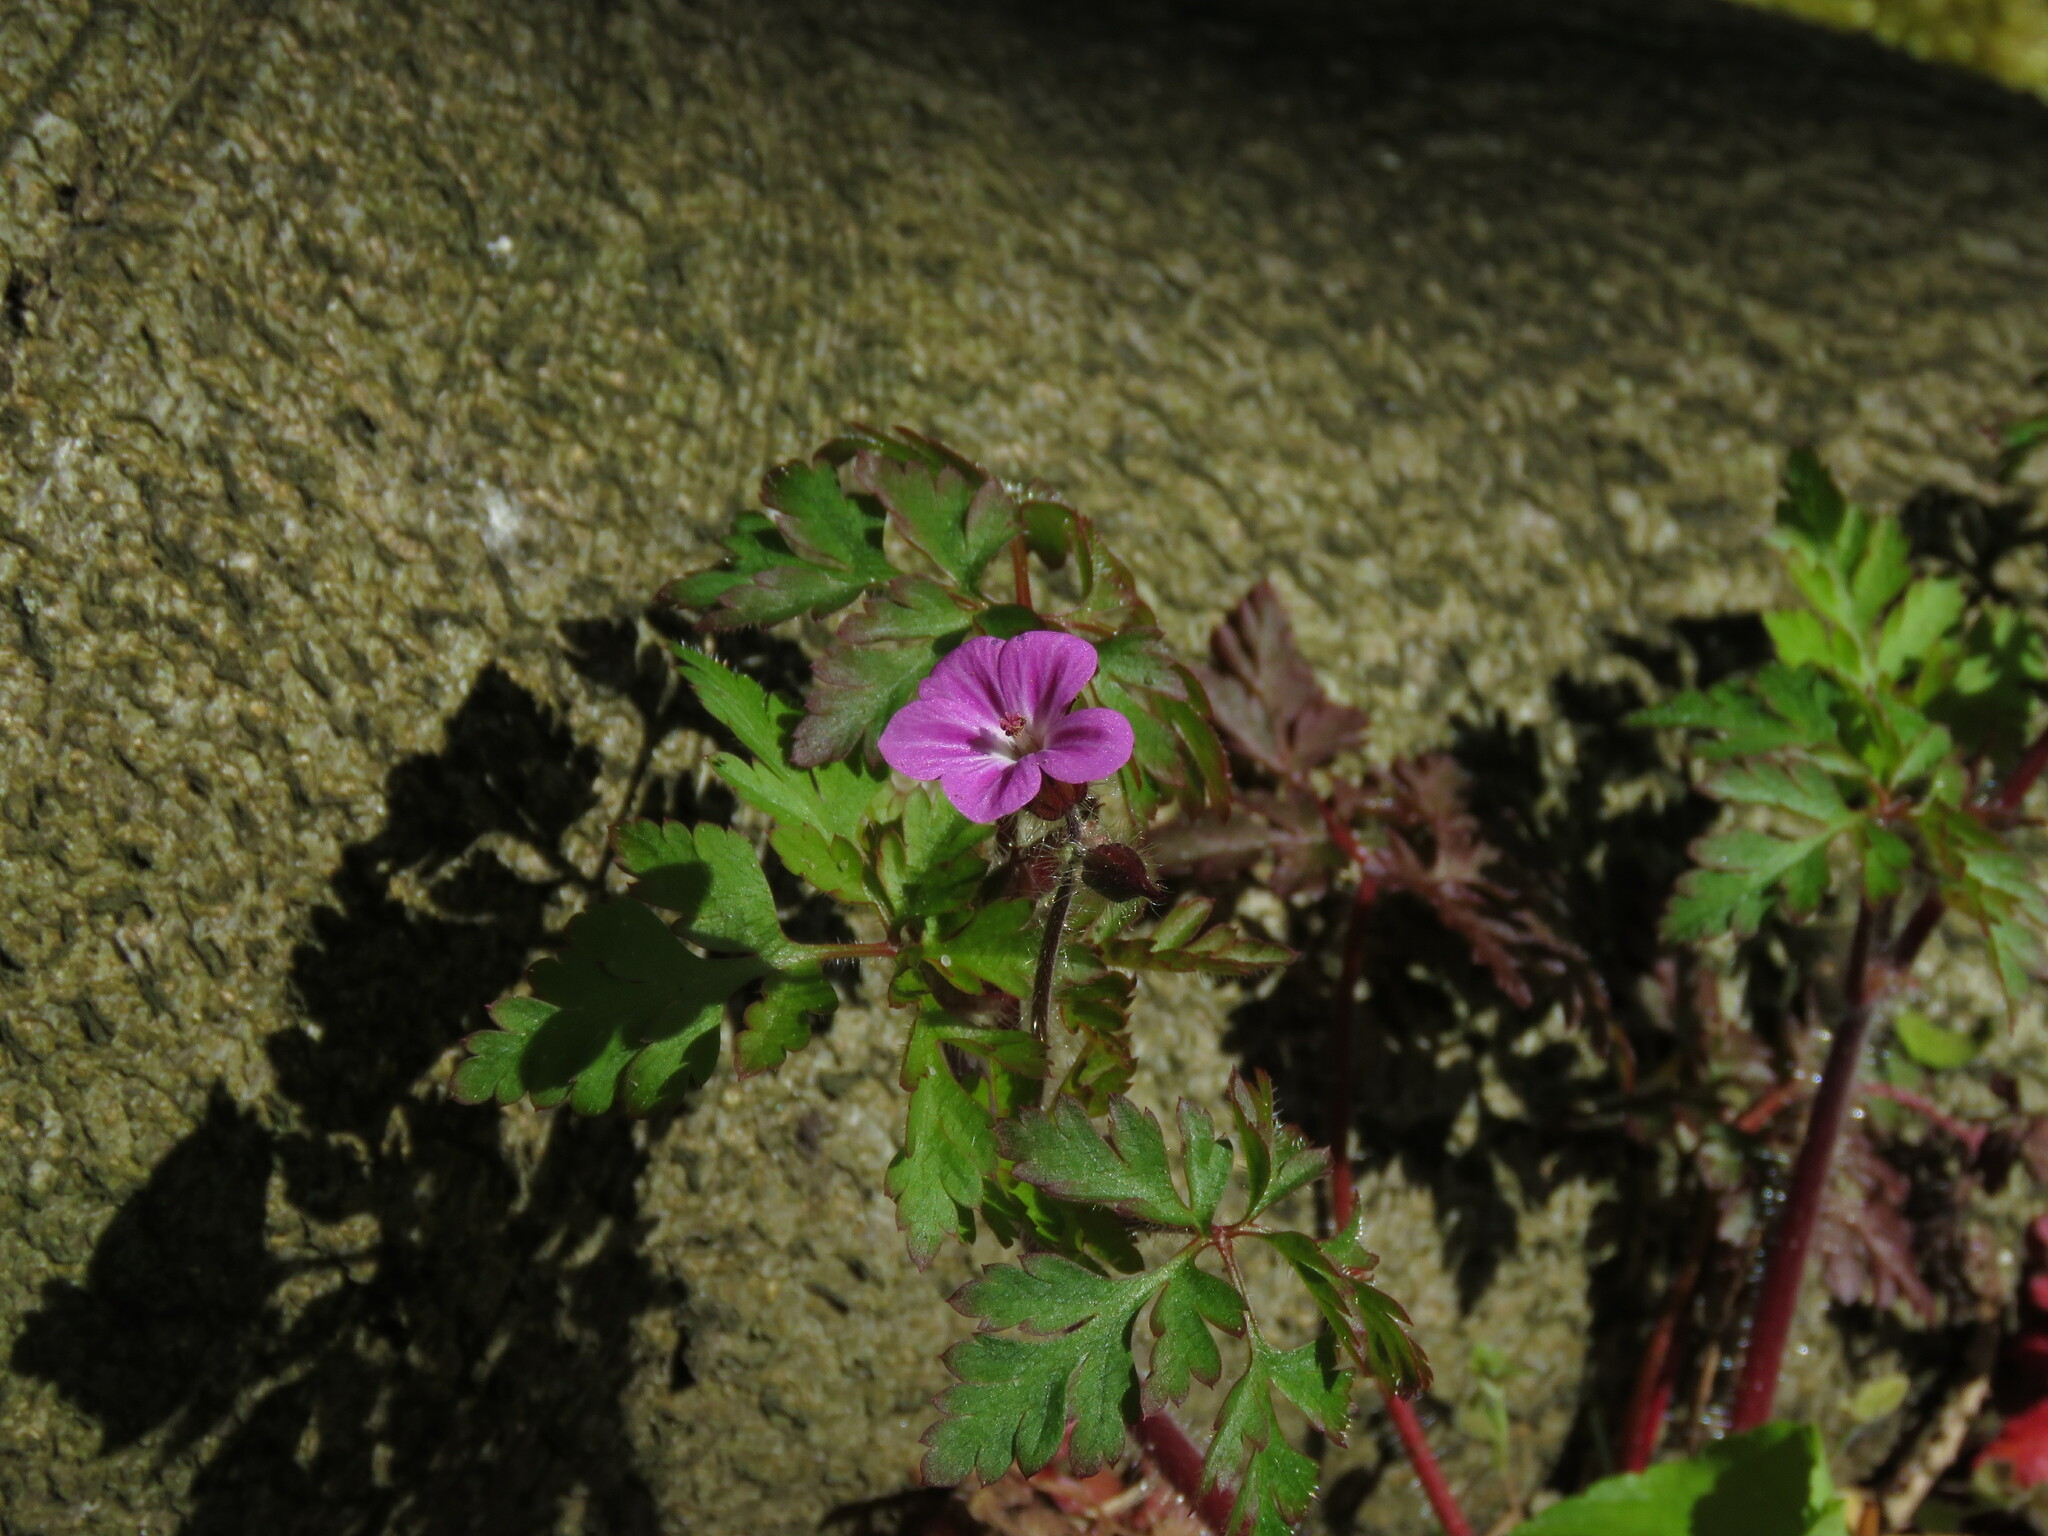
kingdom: Plantae
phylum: Tracheophyta
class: Magnoliopsida
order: Geraniales
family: Geraniaceae
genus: Geranium
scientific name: Geranium robertianum
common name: Herb-robert
